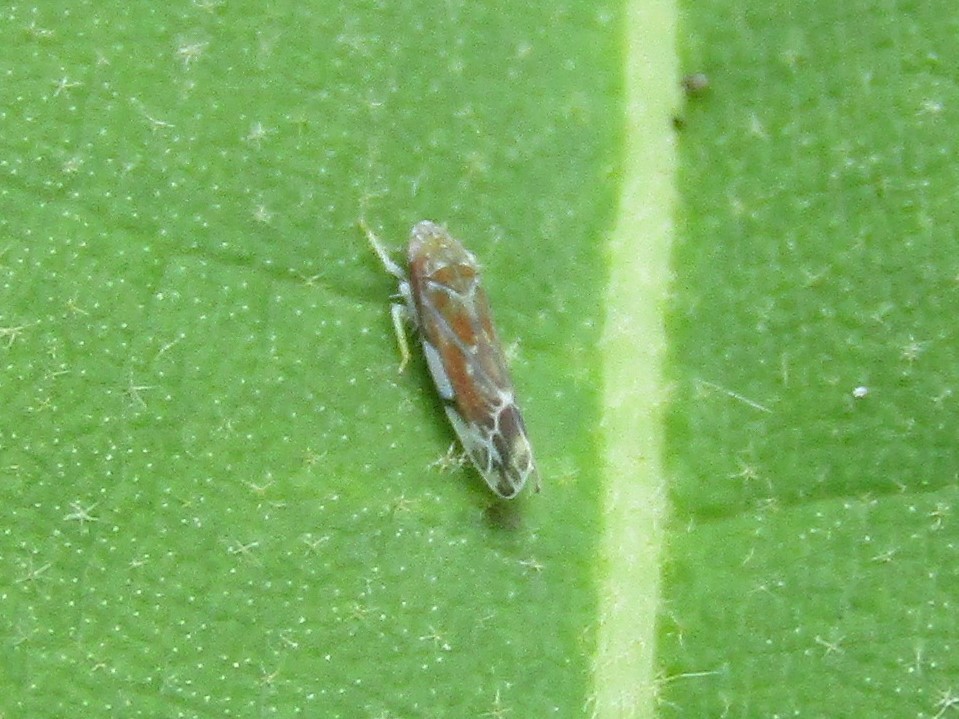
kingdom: Animalia
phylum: Arthropoda
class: Insecta
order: Hemiptera
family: Cicadellidae
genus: Erasmoneura
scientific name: Erasmoneura vulnerata
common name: The wounded leafhopper
